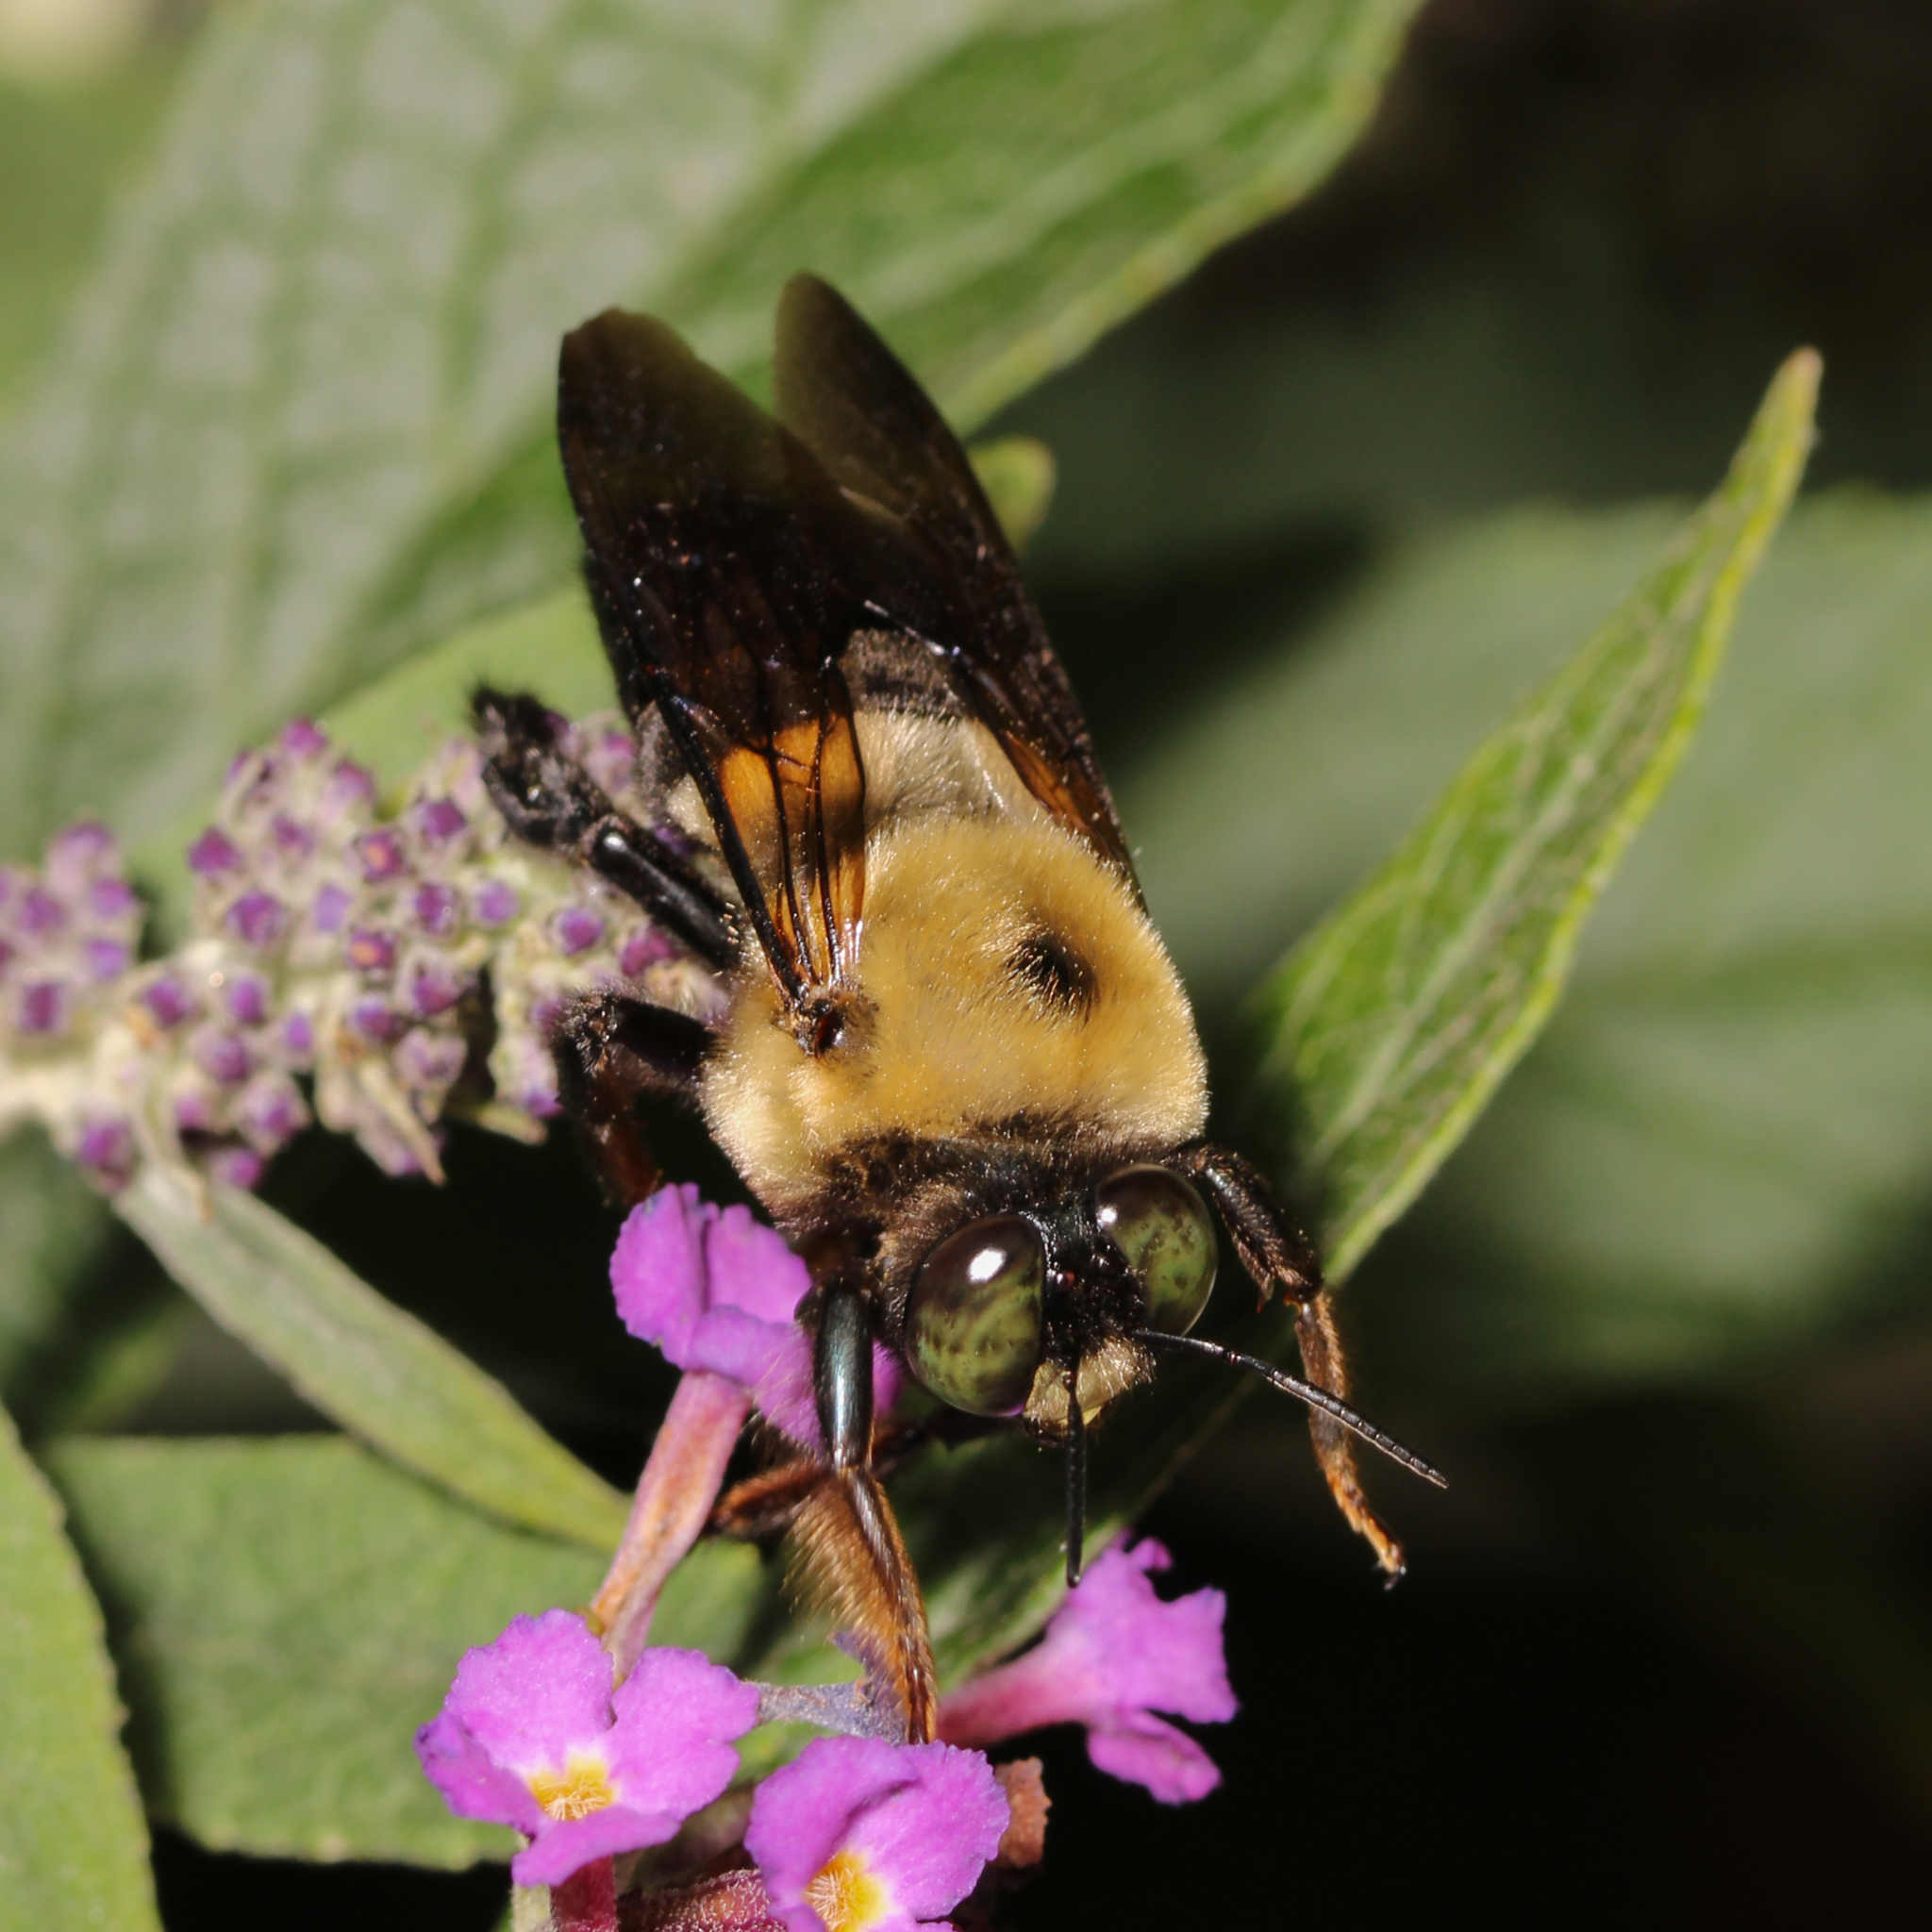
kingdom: Animalia
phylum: Arthropoda
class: Insecta
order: Hymenoptera
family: Apidae
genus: Xylocopa
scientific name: Xylocopa virginica
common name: Carpenter bee
